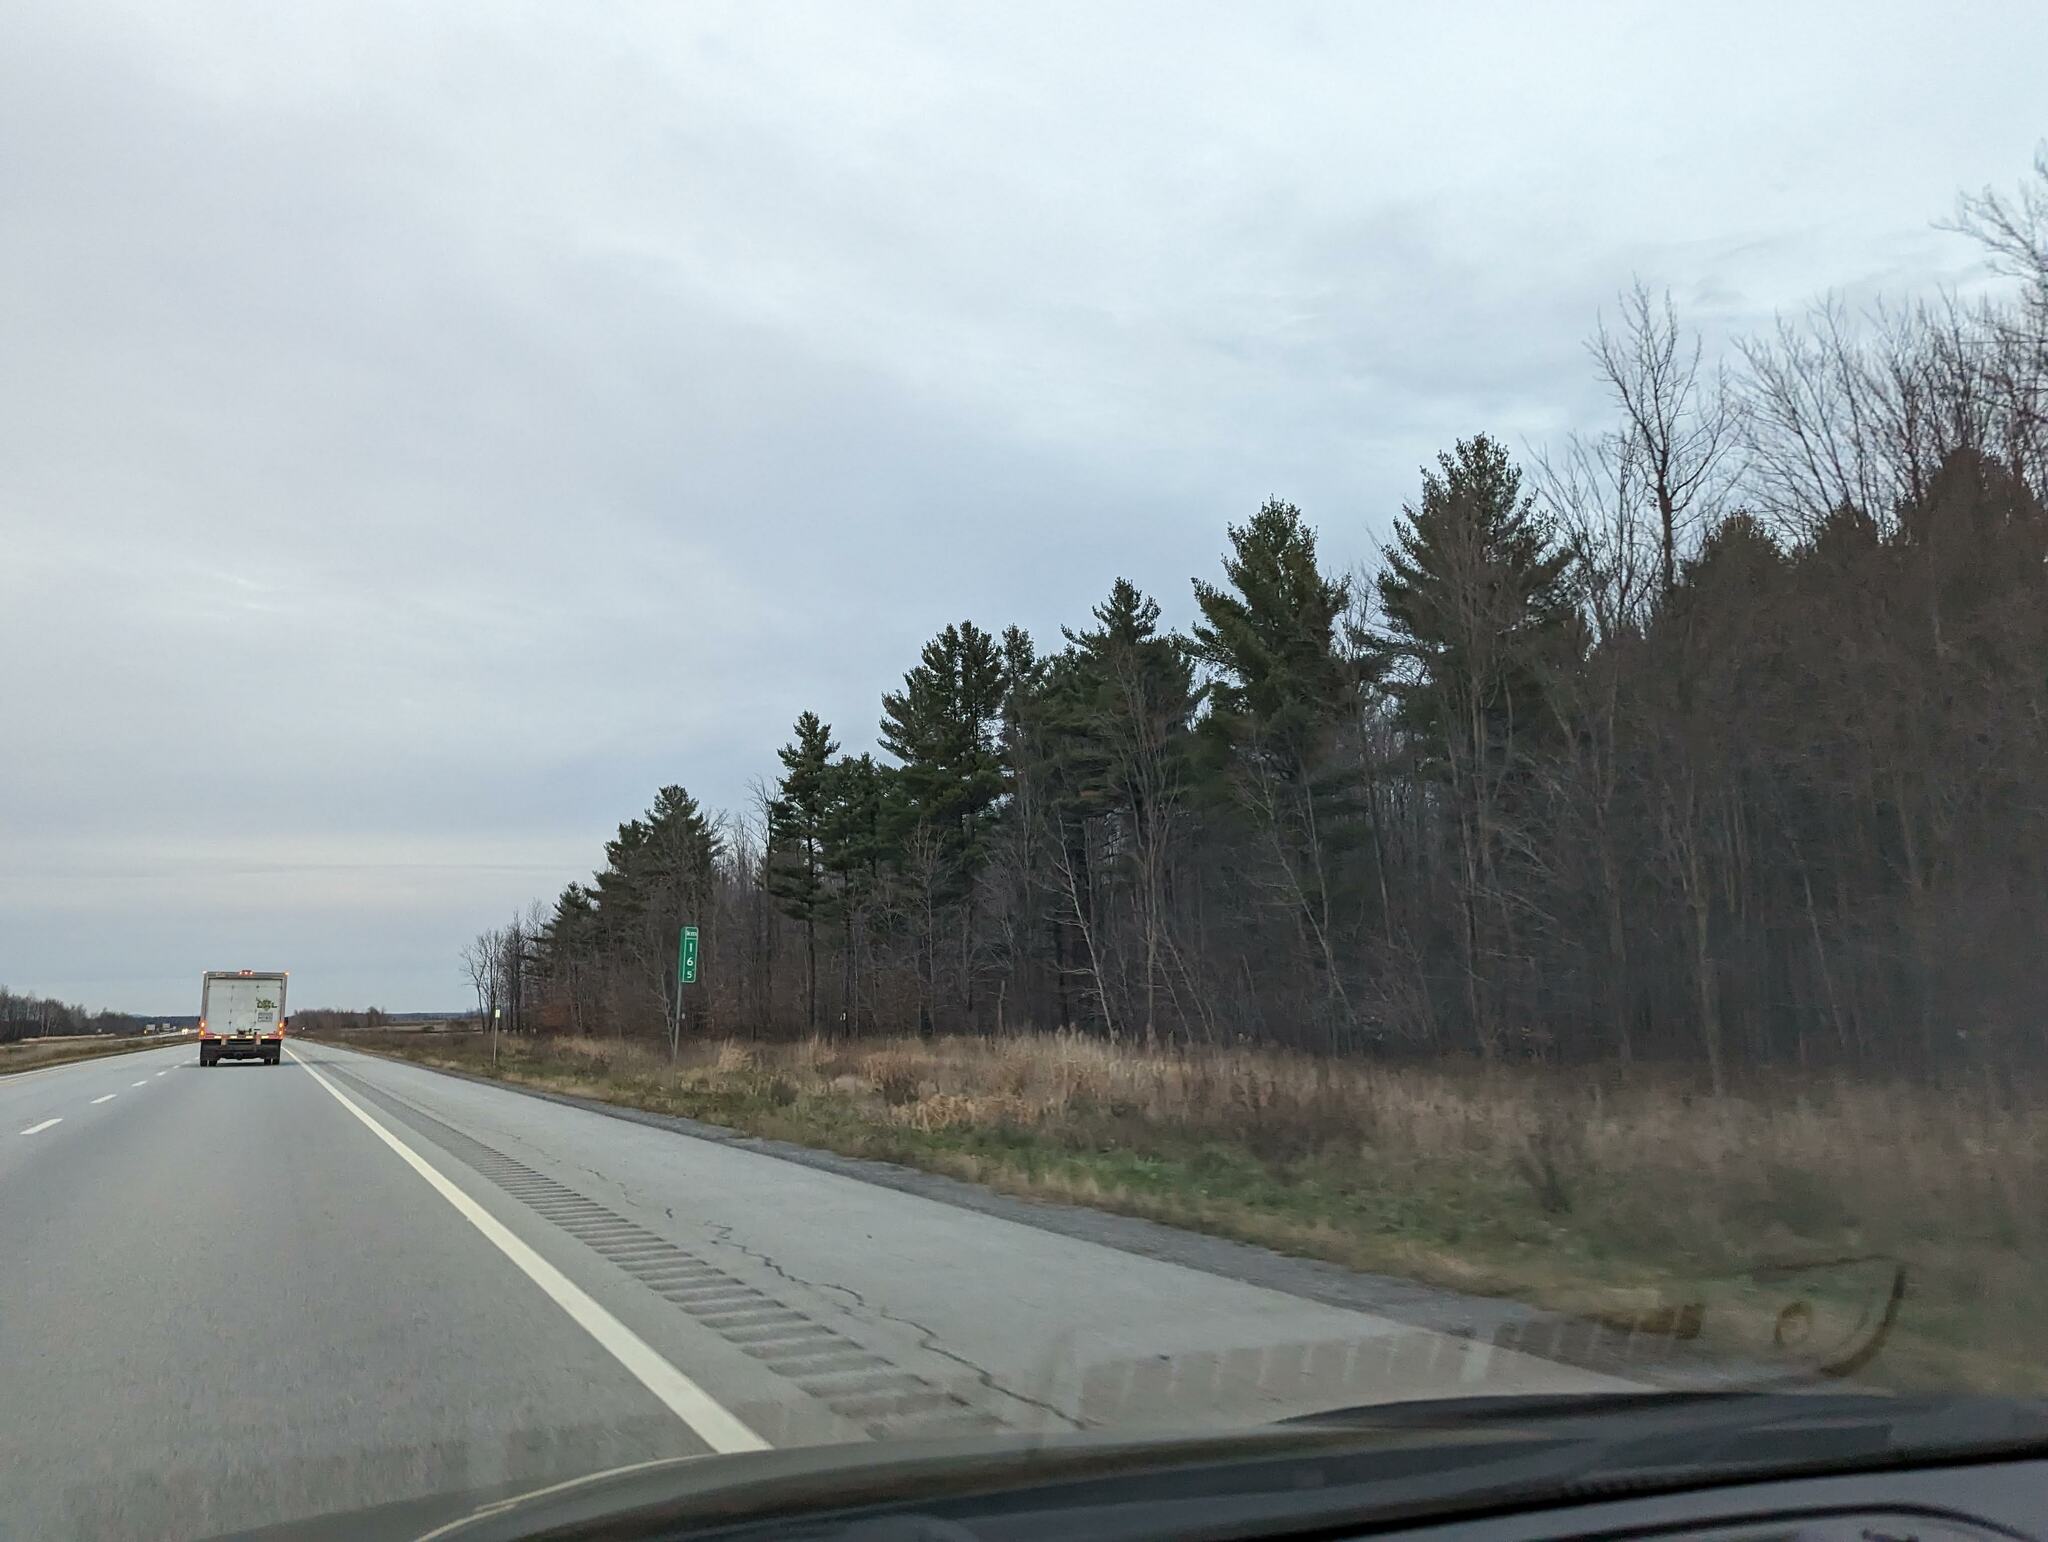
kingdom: Plantae
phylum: Tracheophyta
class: Pinopsida
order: Pinales
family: Pinaceae
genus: Pinus
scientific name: Pinus strobus
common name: Weymouth pine
